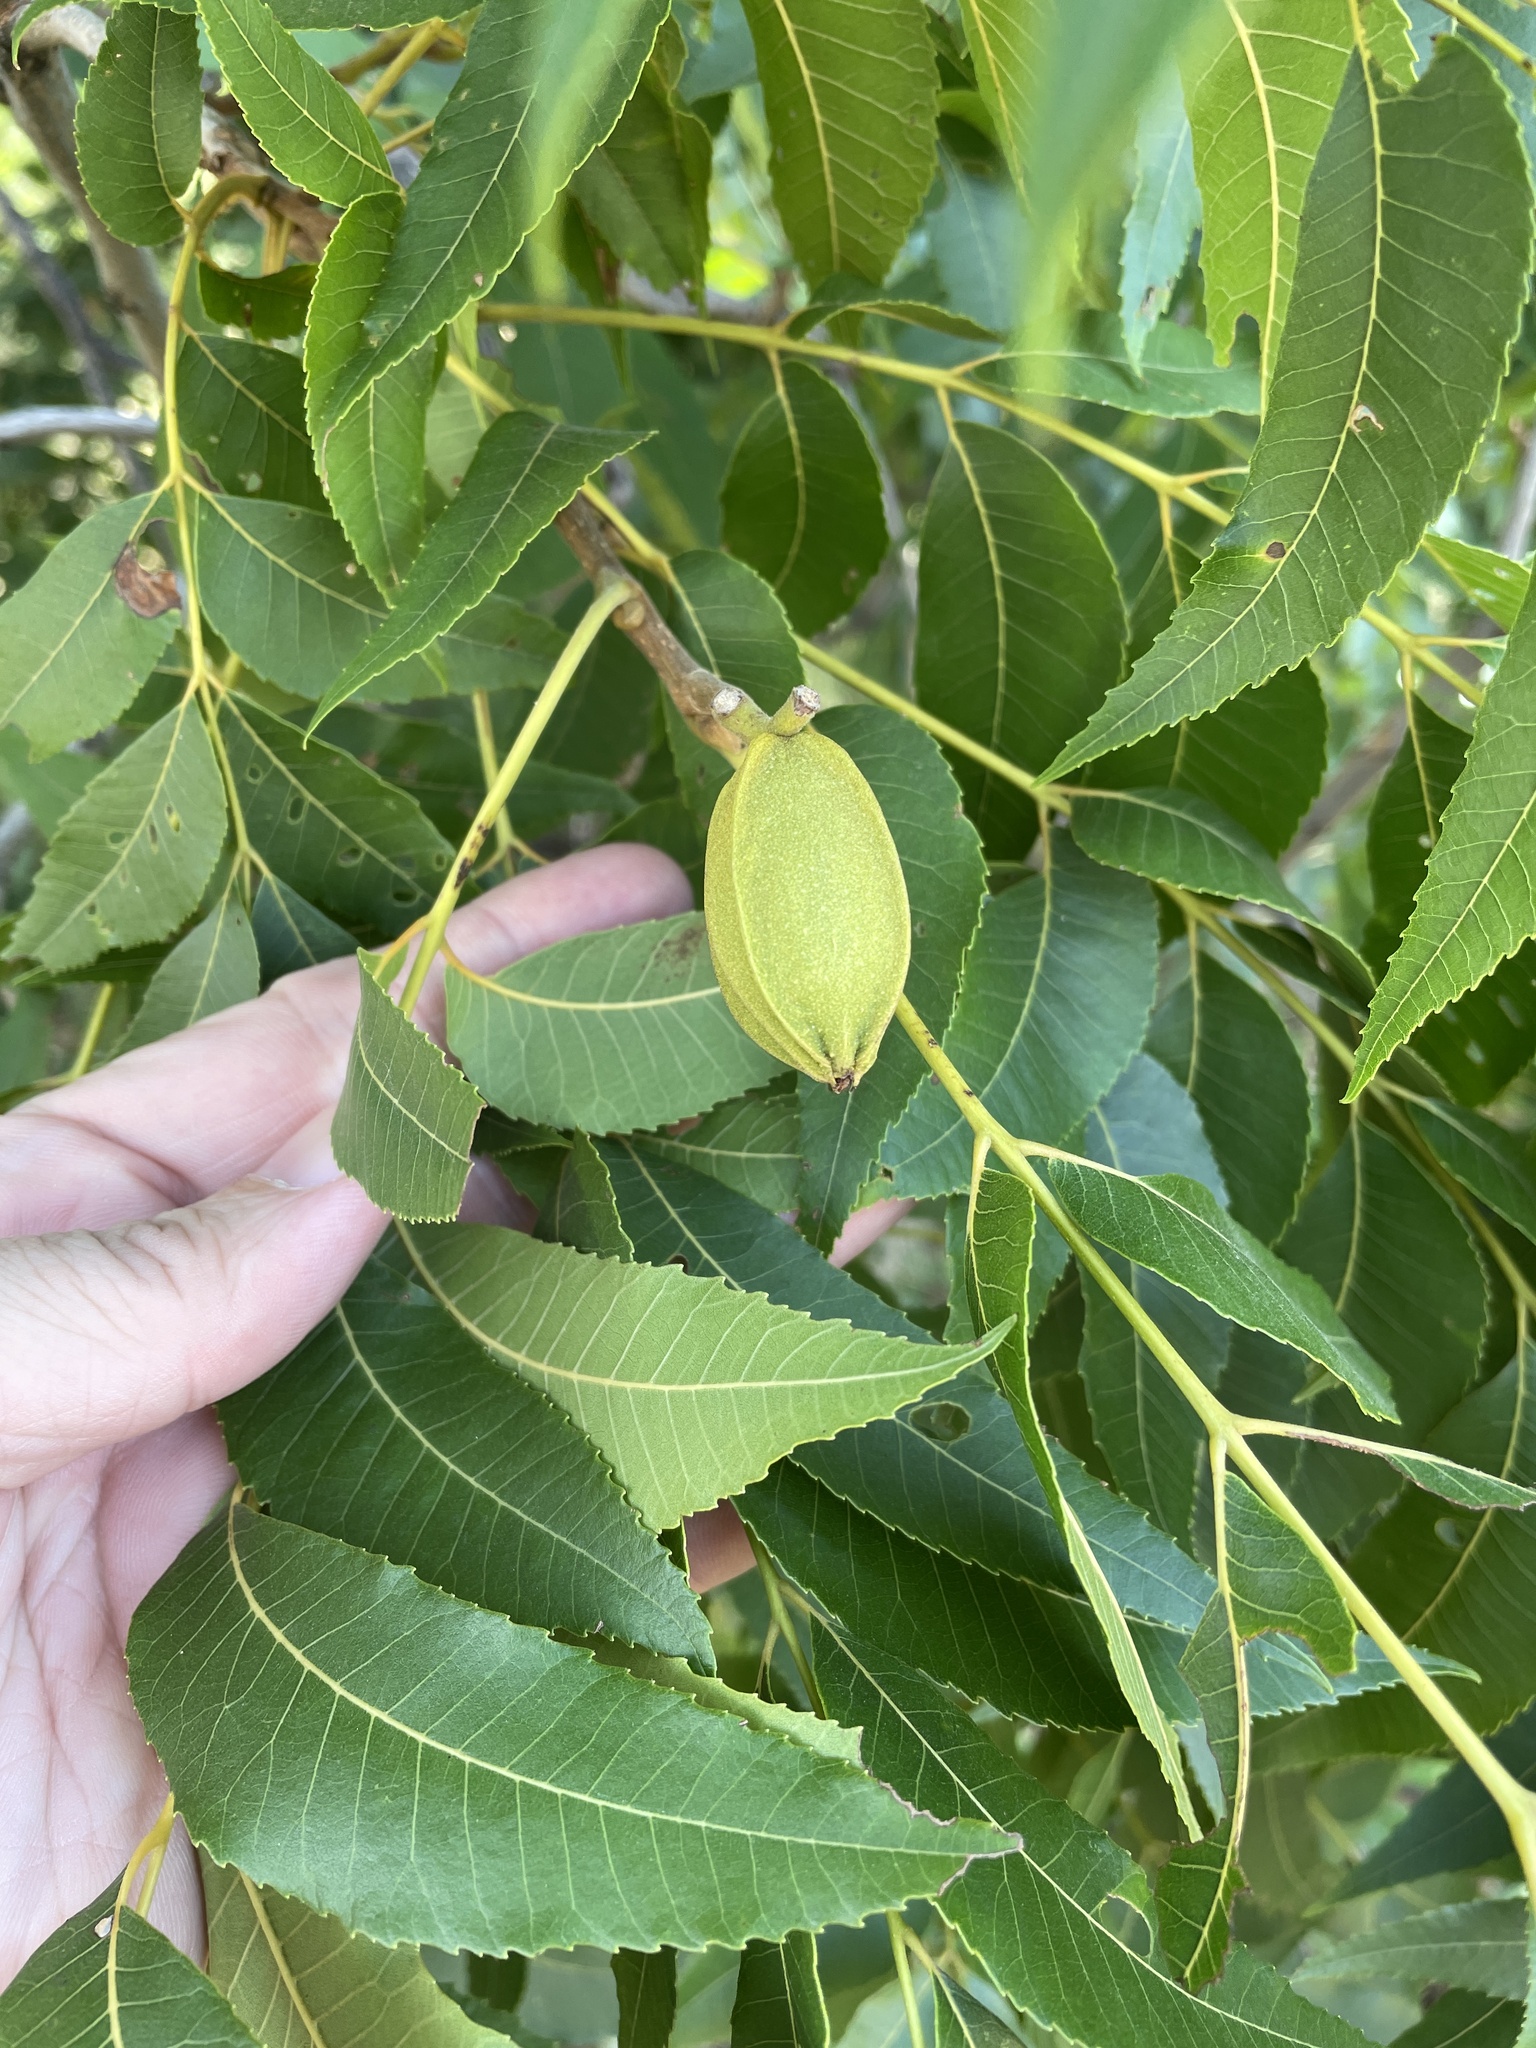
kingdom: Plantae
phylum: Tracheophyta
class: Magnoliopsida
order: Fagales
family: Juglandaceae
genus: Carya
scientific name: Carya illinoinensis
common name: Pecan
